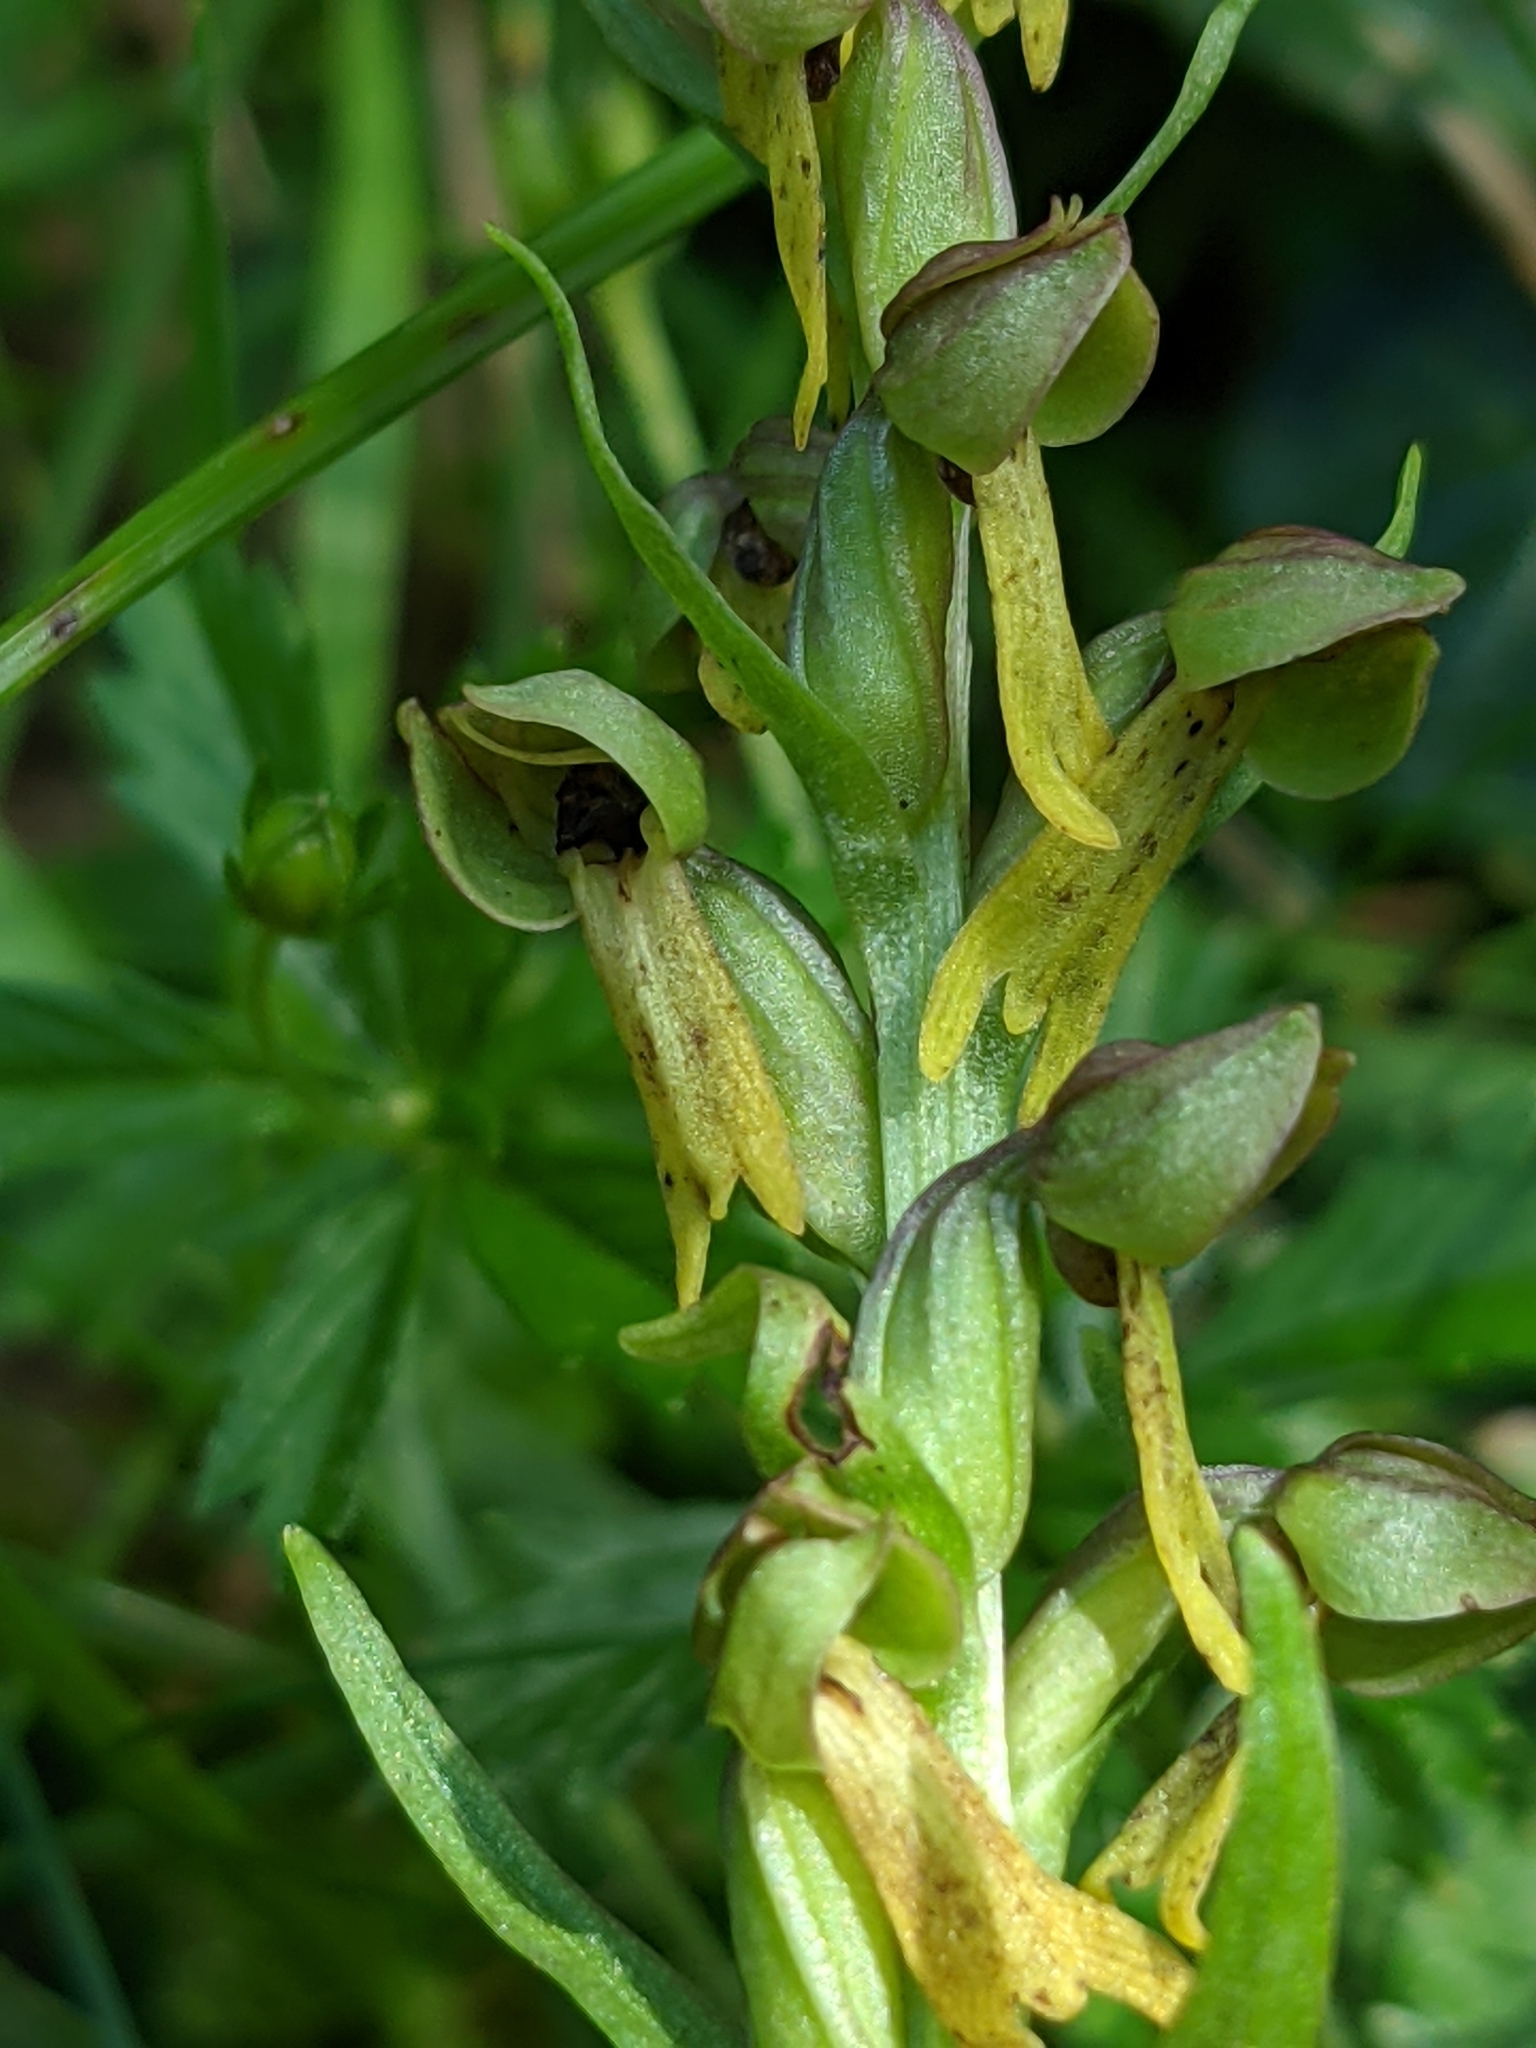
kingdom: Plantae
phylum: Tracheophyta
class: Liliopsida
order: Asparagales
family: Orchidaceae
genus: Dactylorhiza
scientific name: Dactylorhiza viridis
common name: Longbract frog orchid
